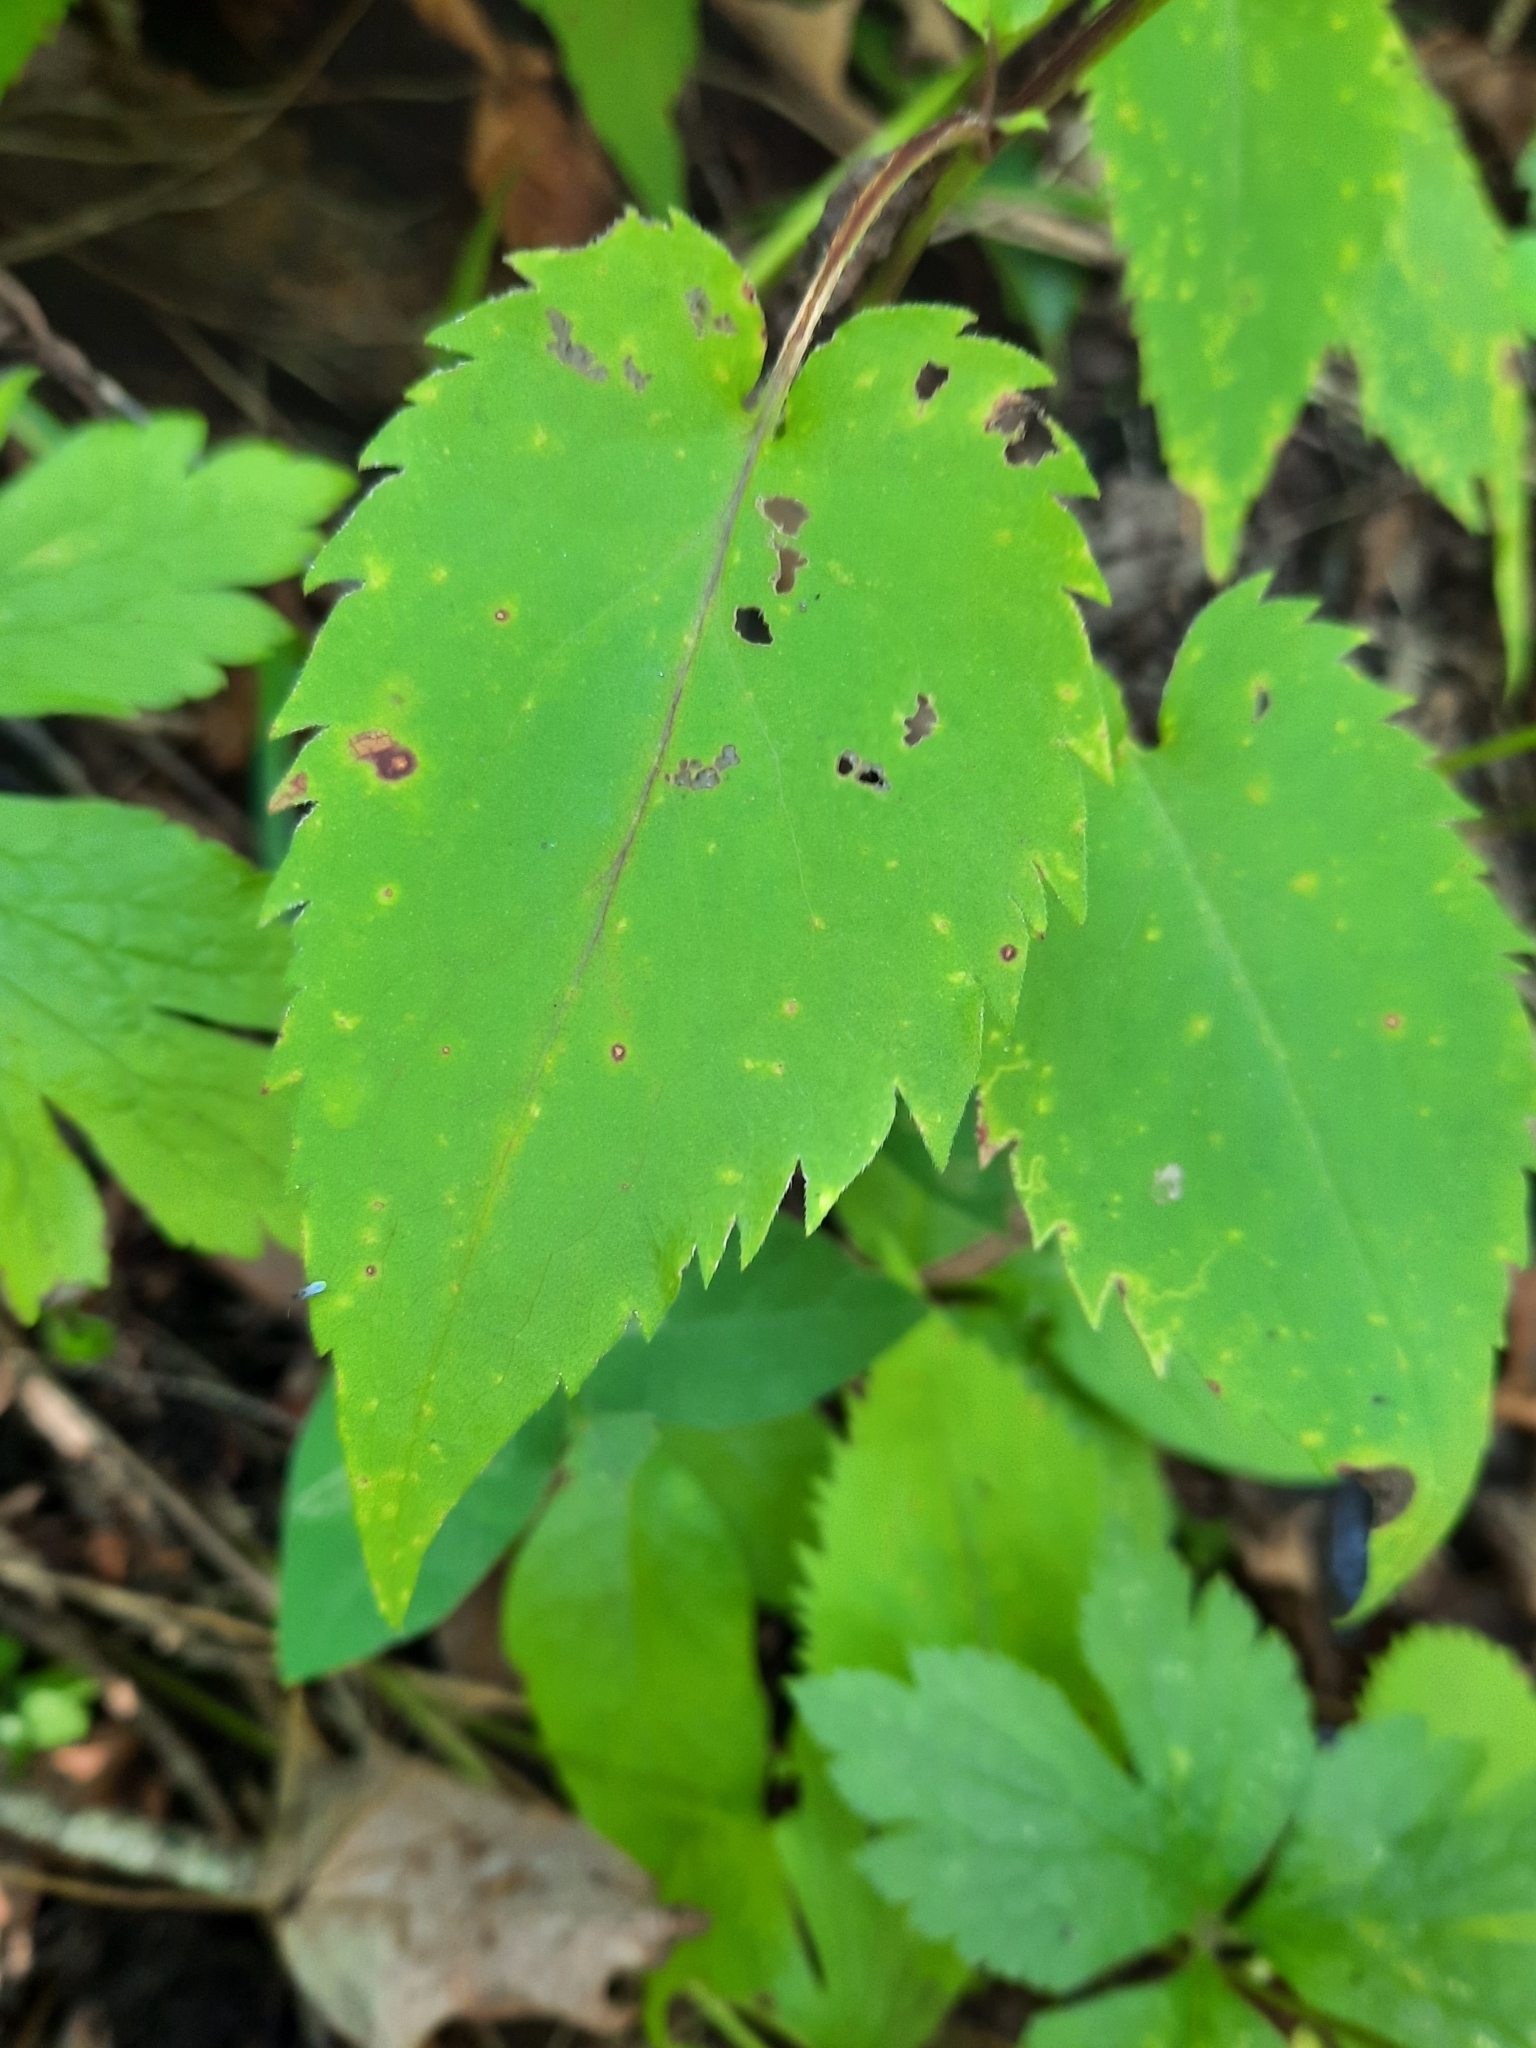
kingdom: Plantae
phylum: Tracheophyta
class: Magnoliopsida
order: Asterales
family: Asteraceae
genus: Symphyotrichum
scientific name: Symphyotrichum cordifolium
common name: Beeweed
